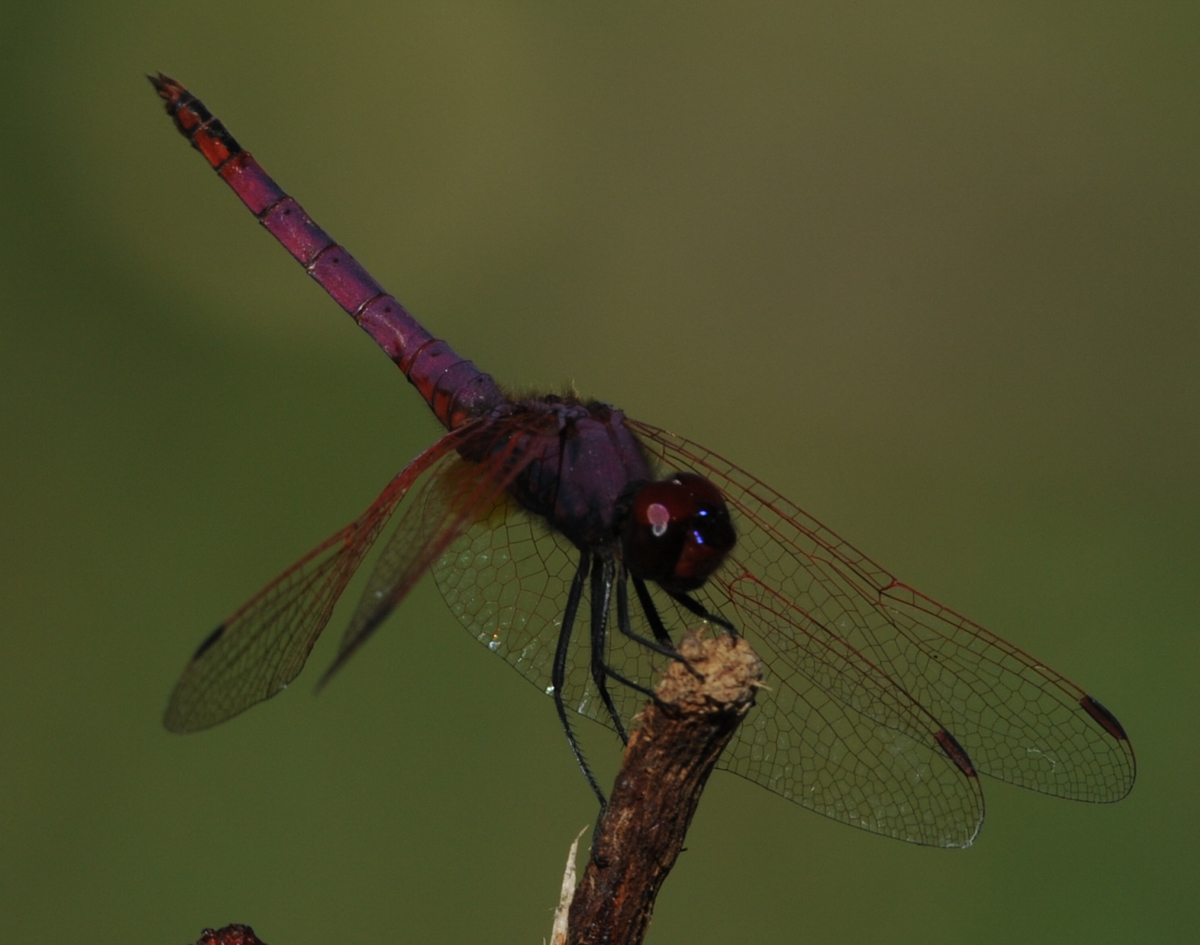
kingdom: Animalia
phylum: Arthropoda
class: Insecta
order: Odonata
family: Libellulidae
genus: Trithemis
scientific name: Trithemis annulata
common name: Violet dropwing
